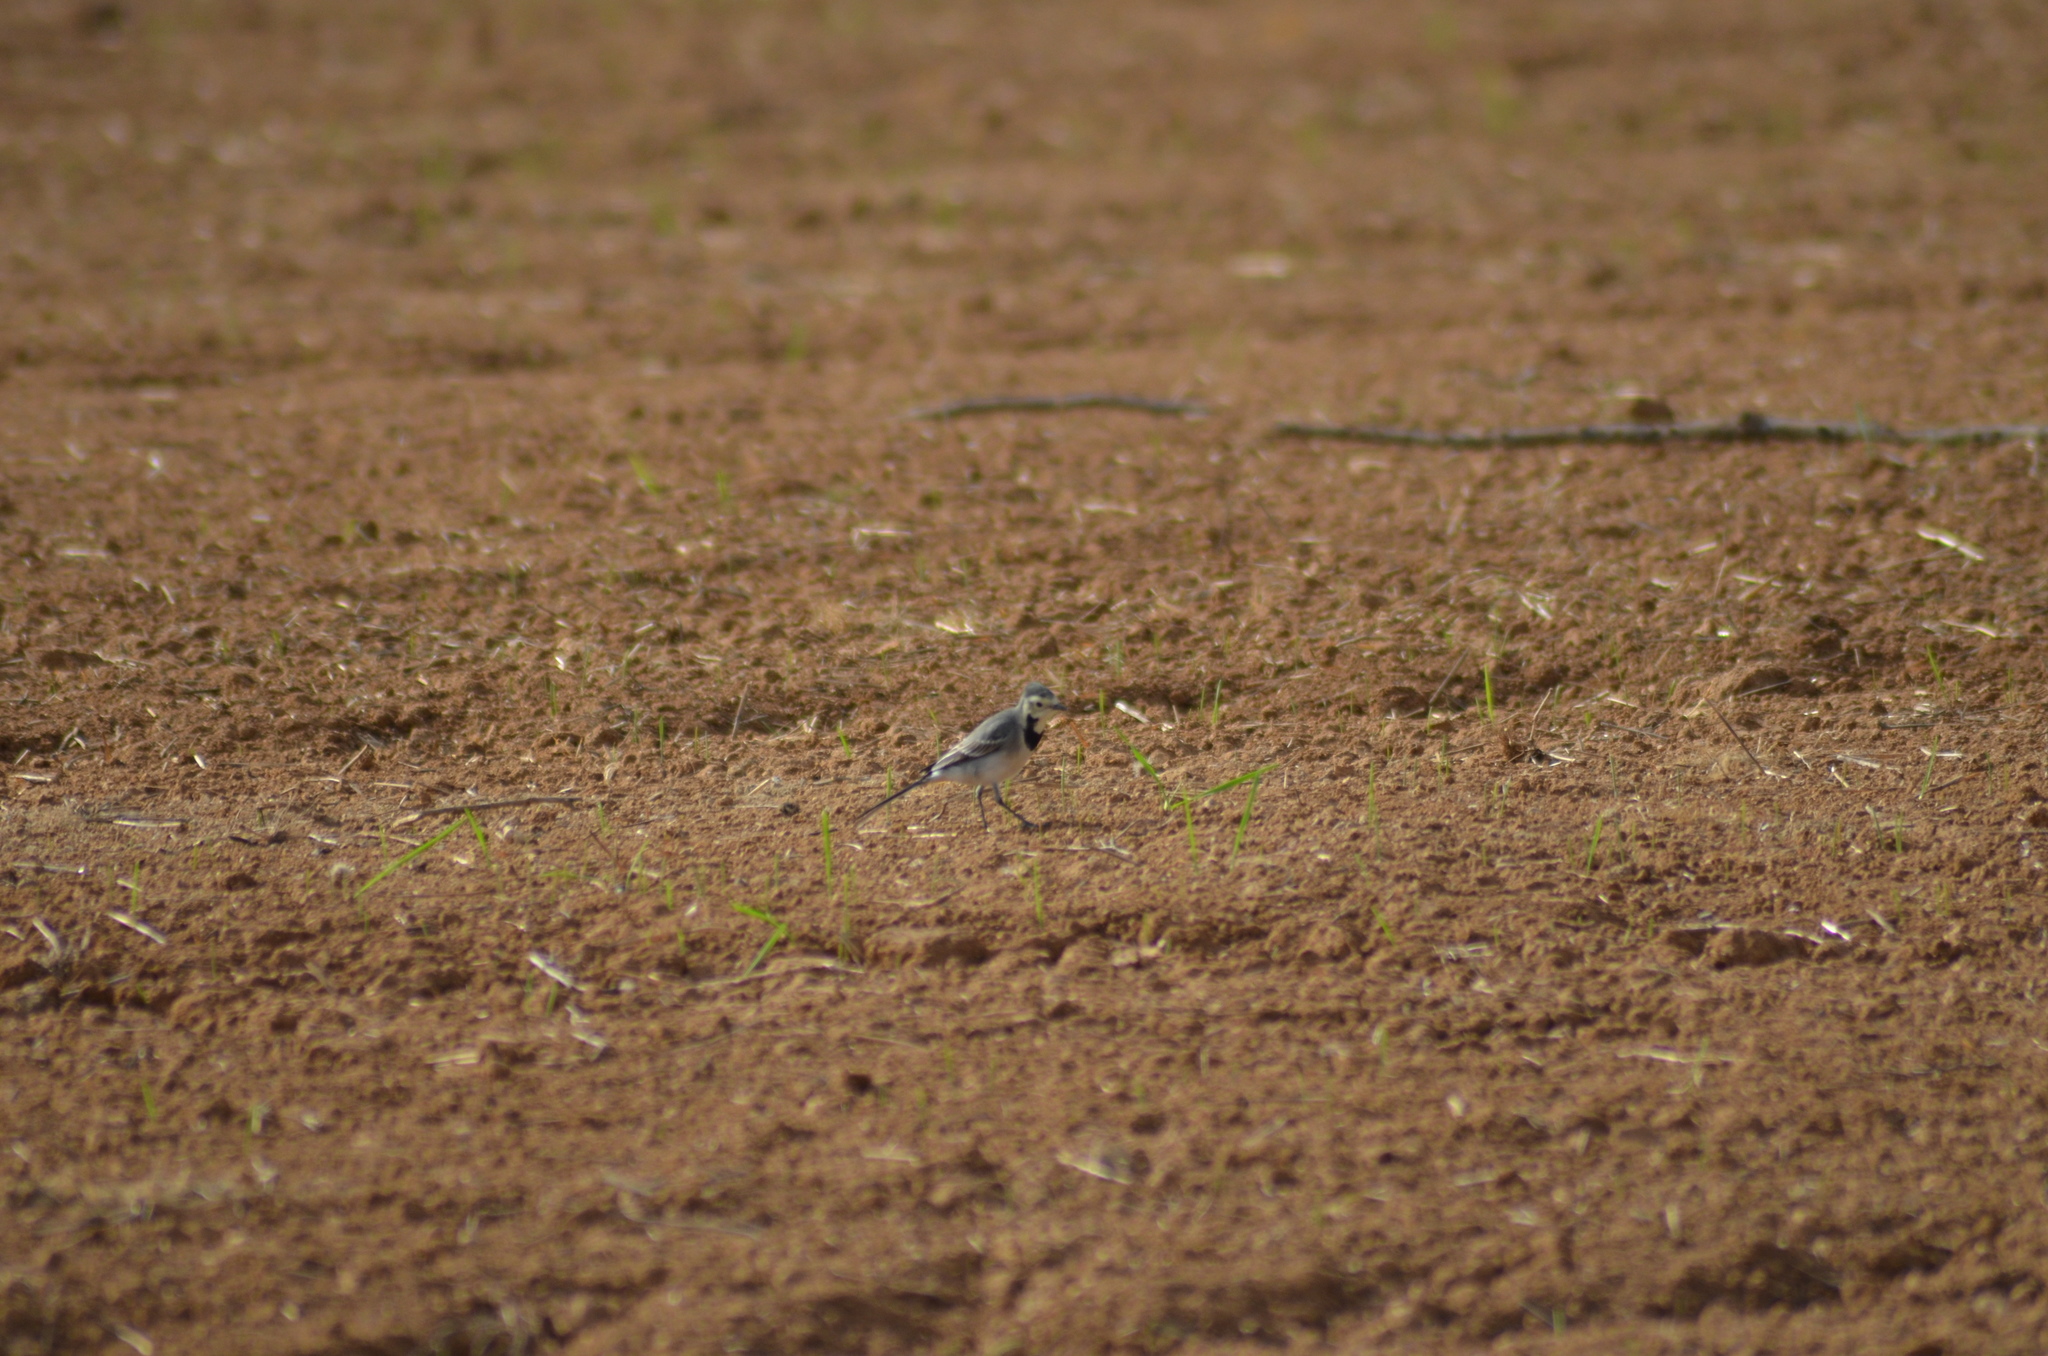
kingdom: Animalia
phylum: Chordata
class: Aves
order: Passeriformes
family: Motacillidae
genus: Motacilla
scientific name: Motacilla alba
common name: White wagtail
